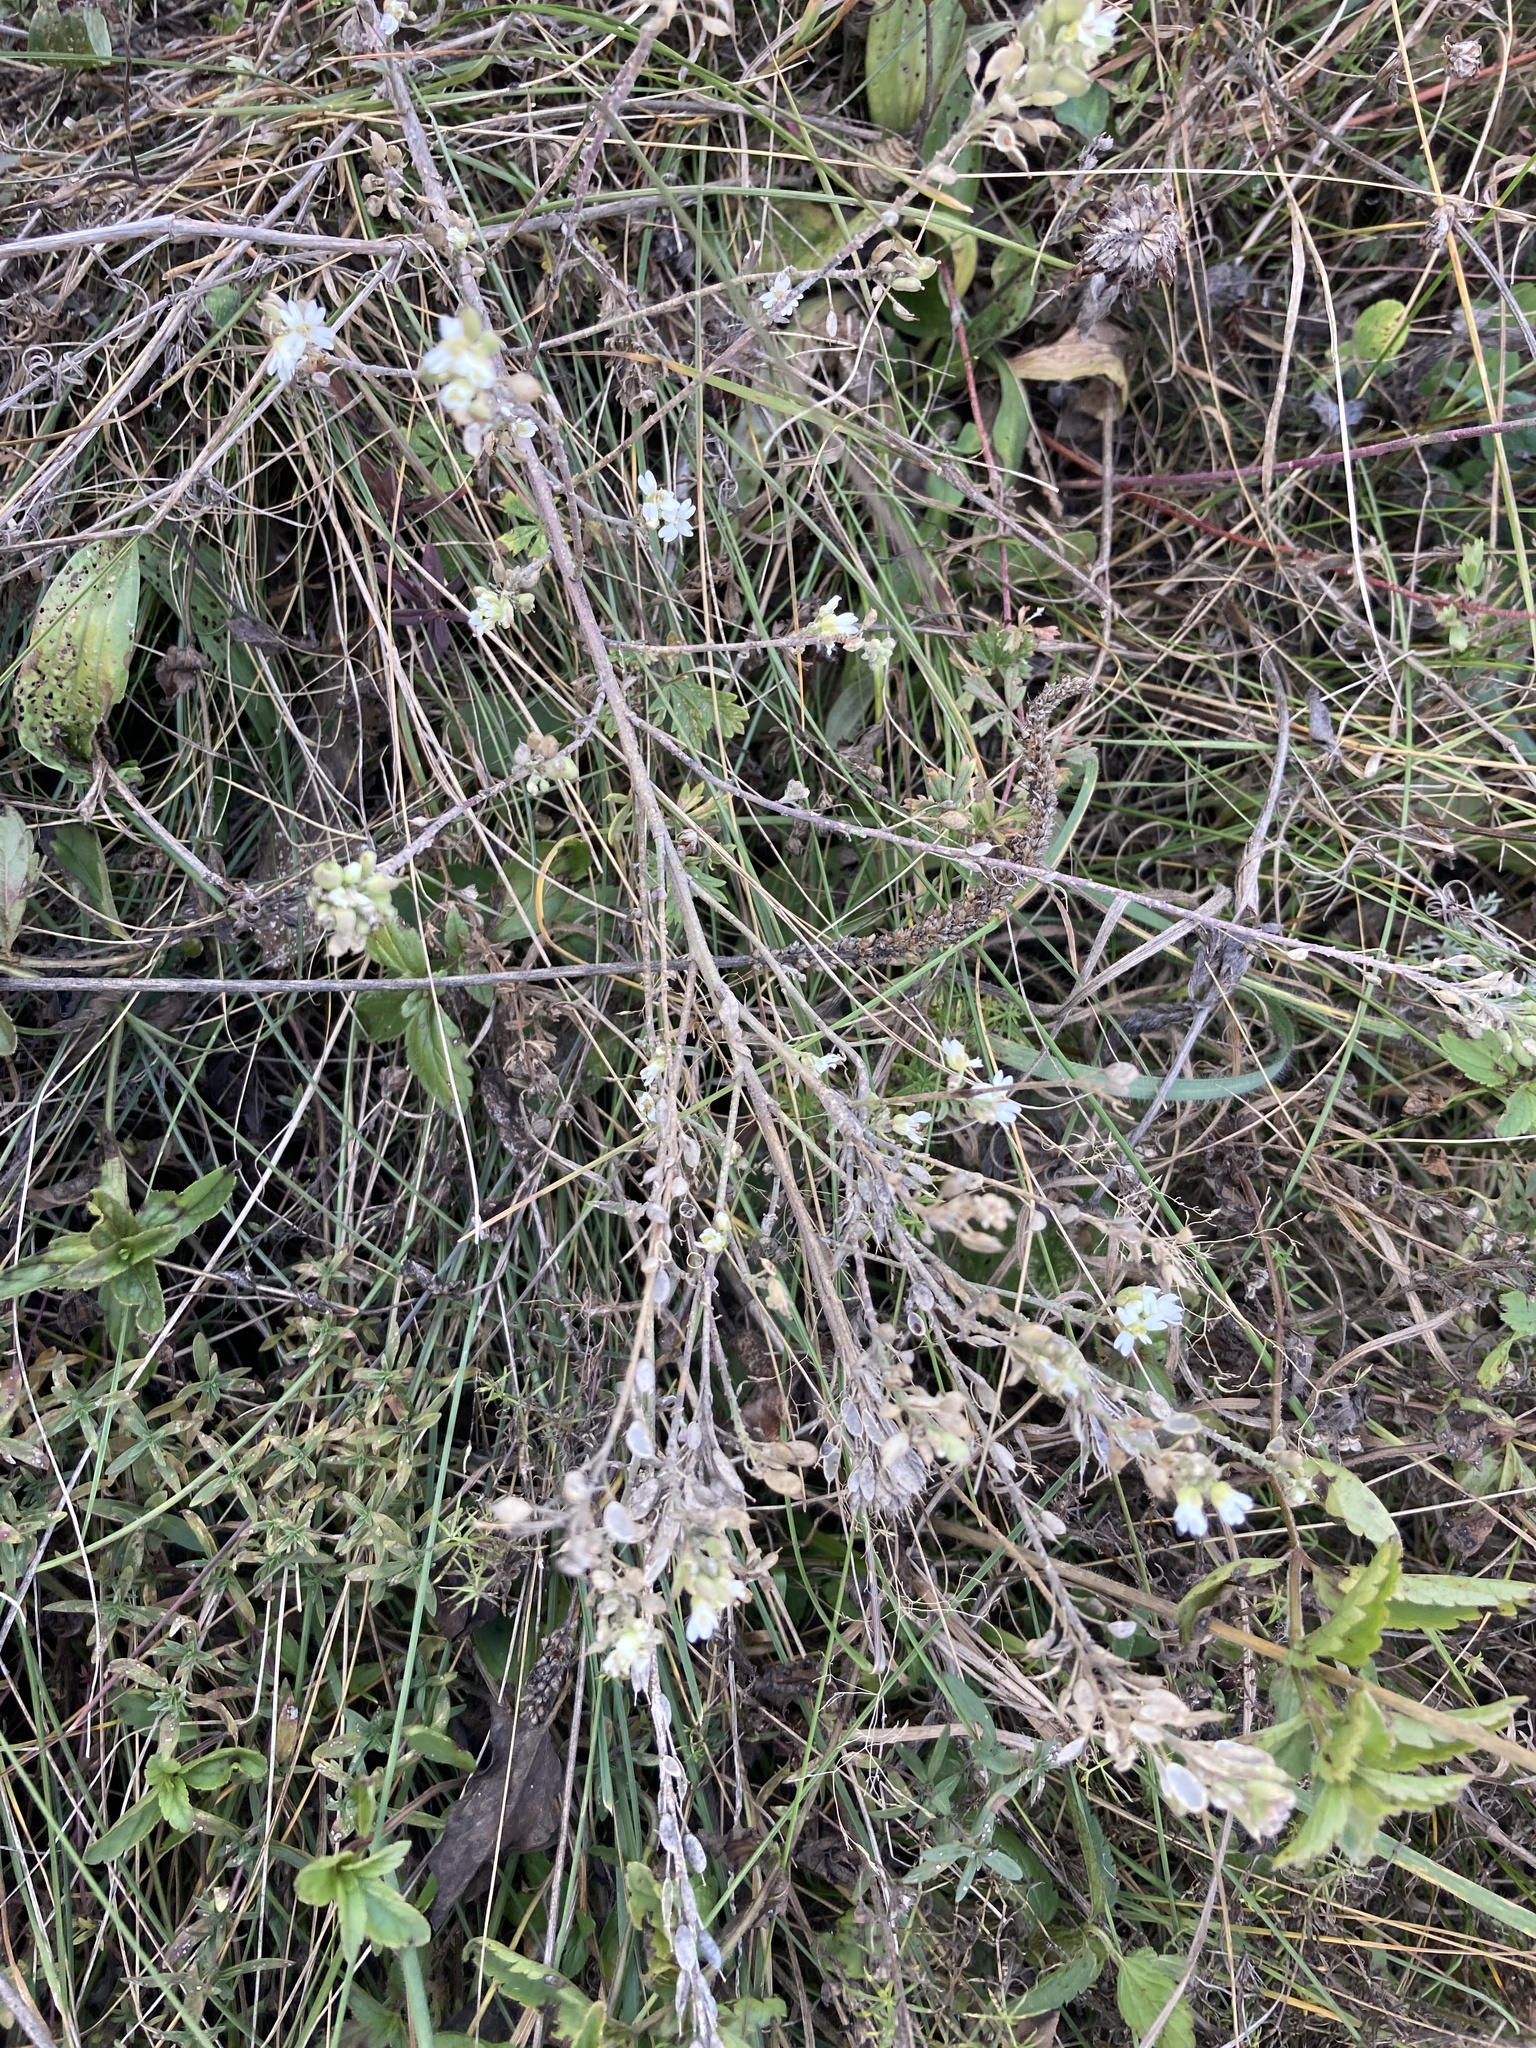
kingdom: Plantae
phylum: Tracheophyta
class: Magnoliopsida
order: Brassicales
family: Brassicaceae
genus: Berteroa
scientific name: Berteroa incana
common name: Hoary alison
